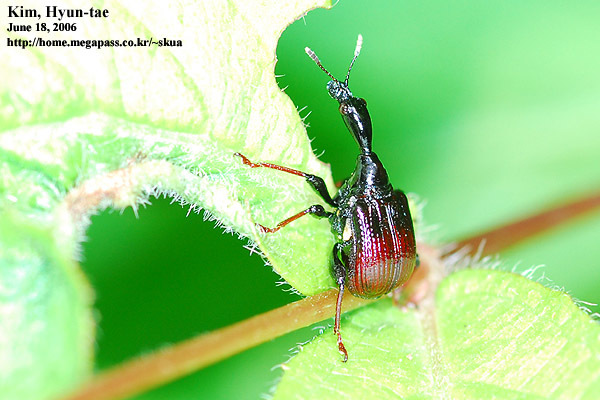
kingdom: Animalia
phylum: Arthropoda
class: Insecta
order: Coleoptera
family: Attelabidae
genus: Paracycnotrachelus
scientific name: Paracycnotrachelus chinensis
